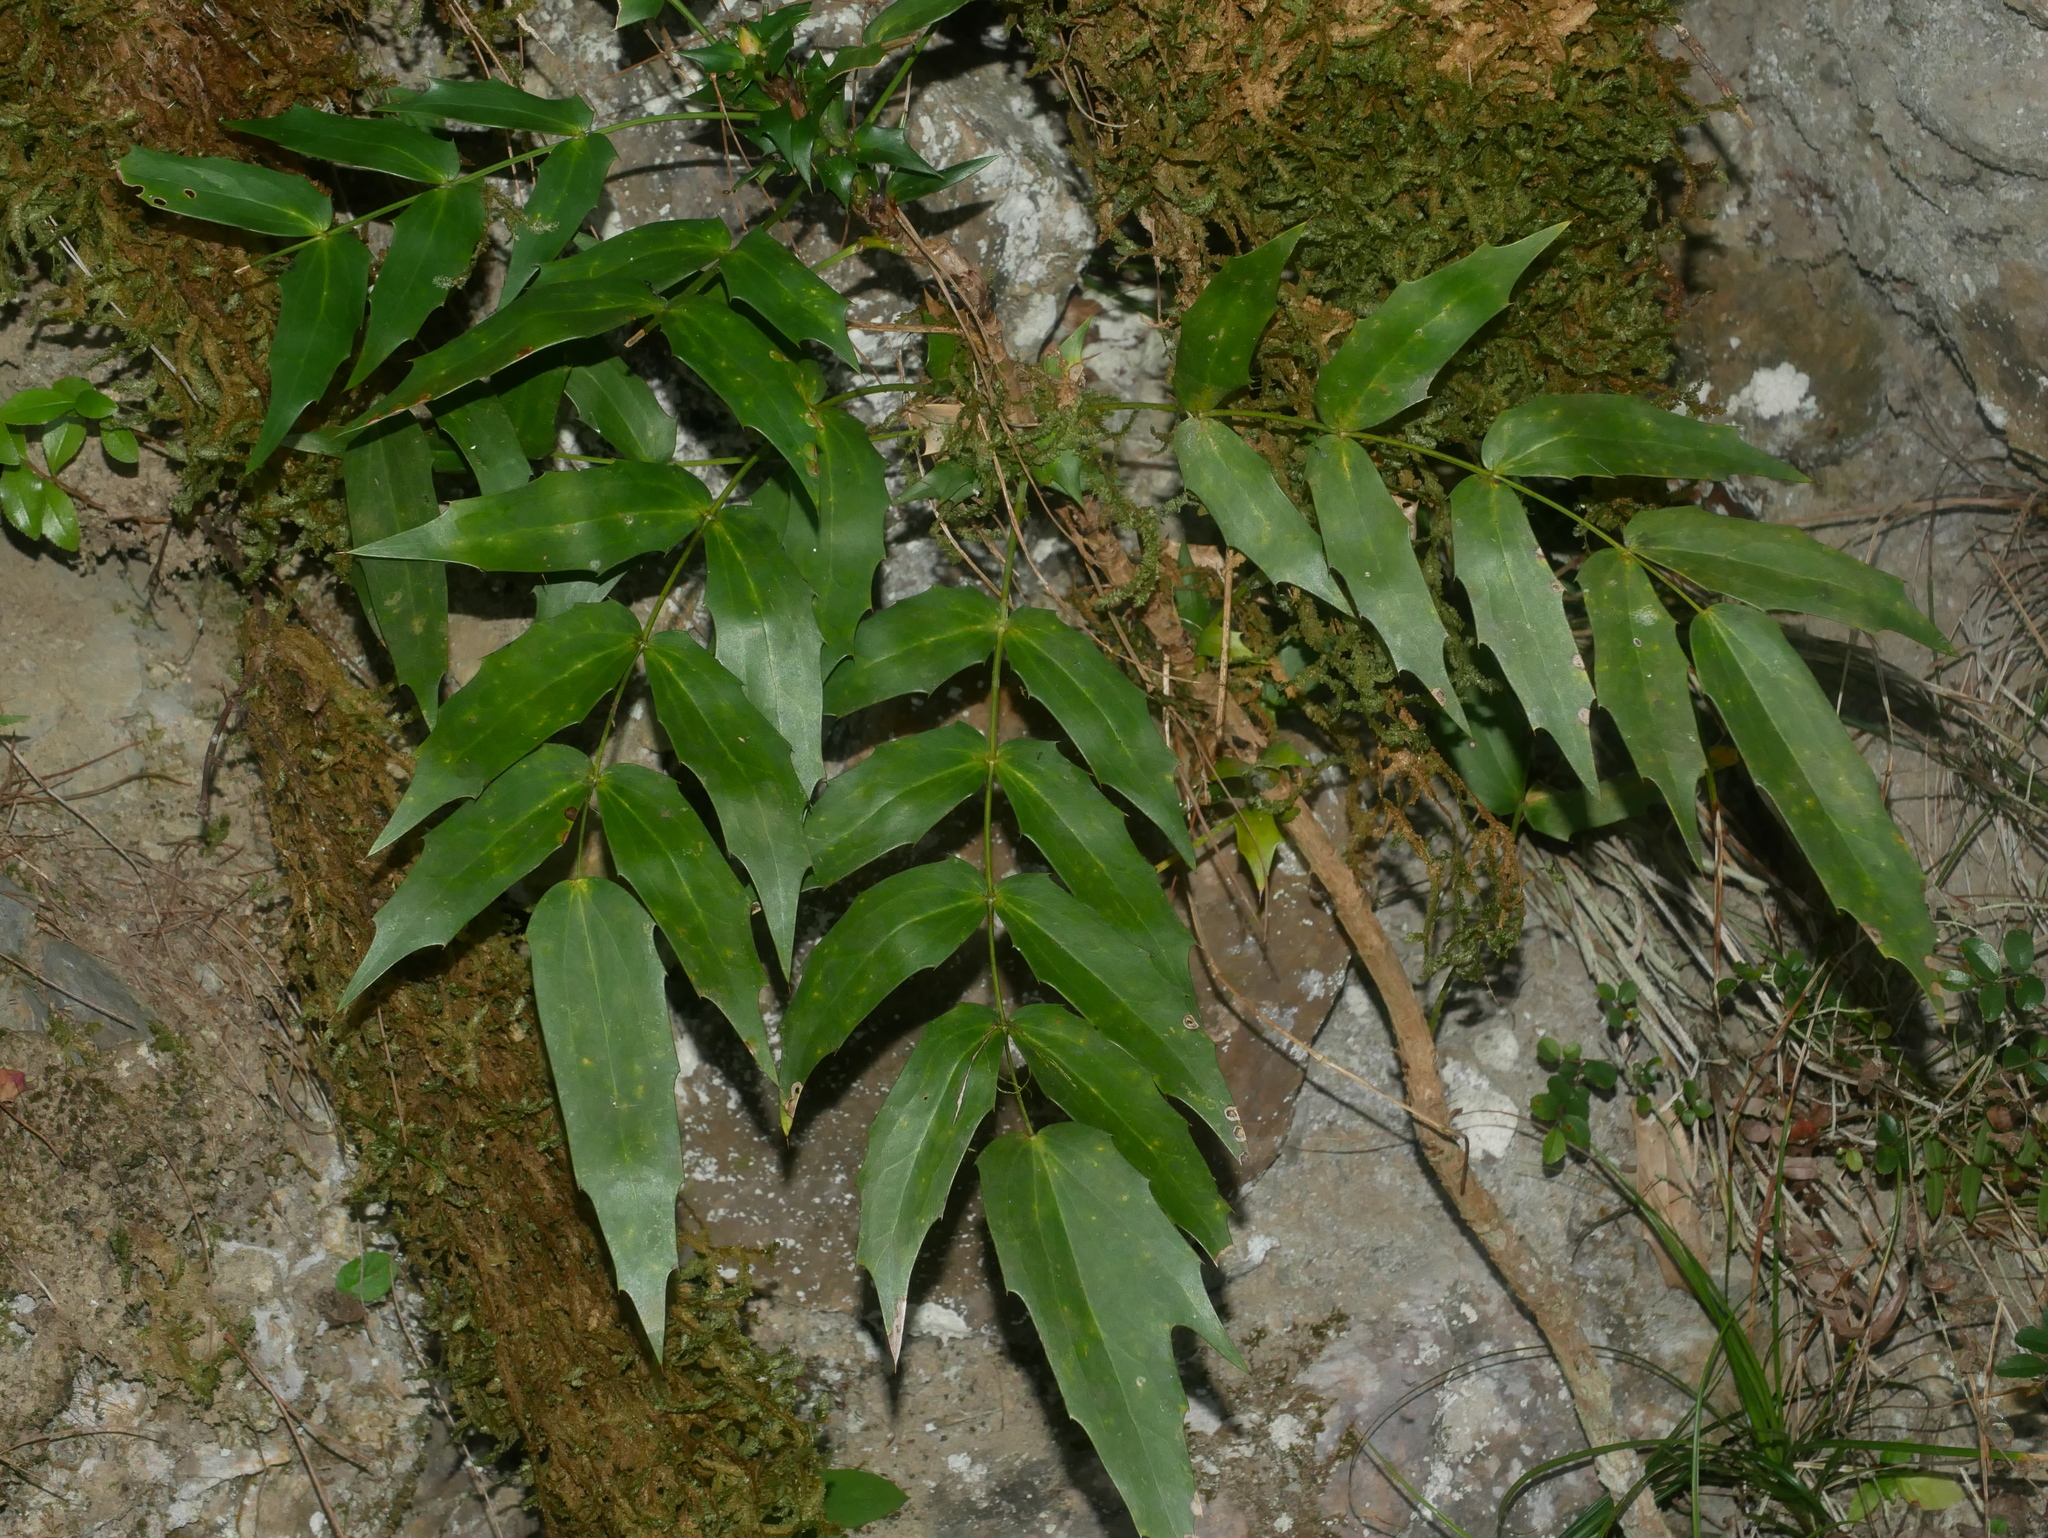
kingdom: Plantae
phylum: Tracheophyta
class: Magnoliopsida
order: Ranunculales
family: Berberidaceae
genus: Mahonia
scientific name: Mahonia oiwakensis
